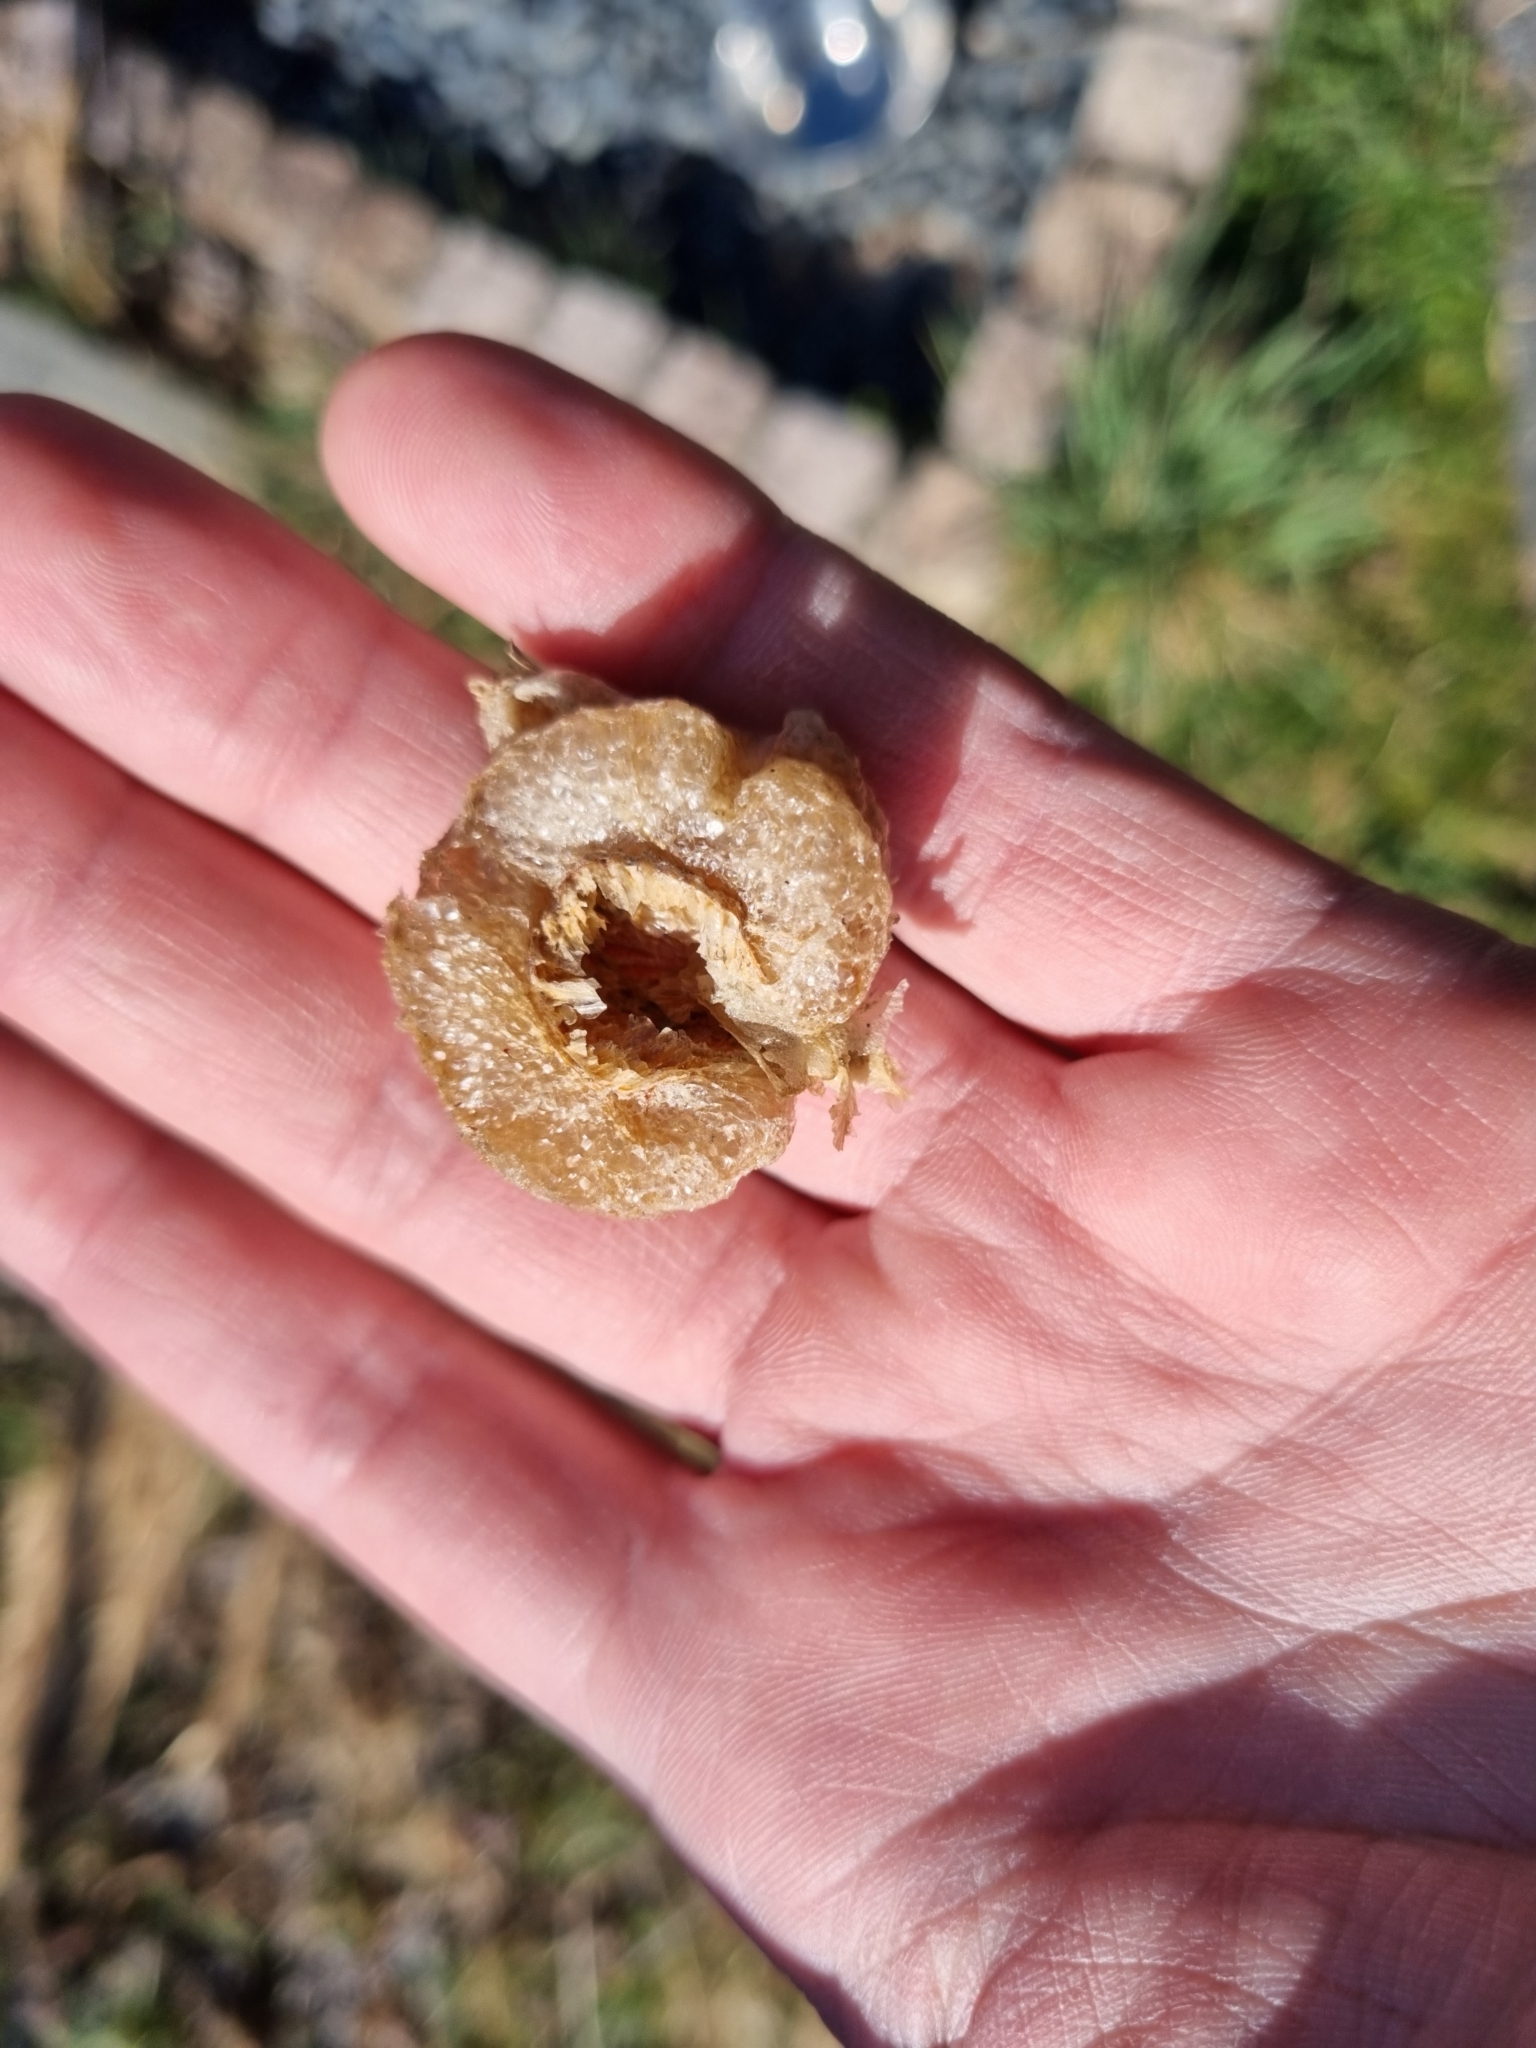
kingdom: Animalia
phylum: Arthropoda
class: Insecta
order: Mantodea
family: Mantidae
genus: Tenodera
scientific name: Tenodera sinensis
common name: Chinese mantis
